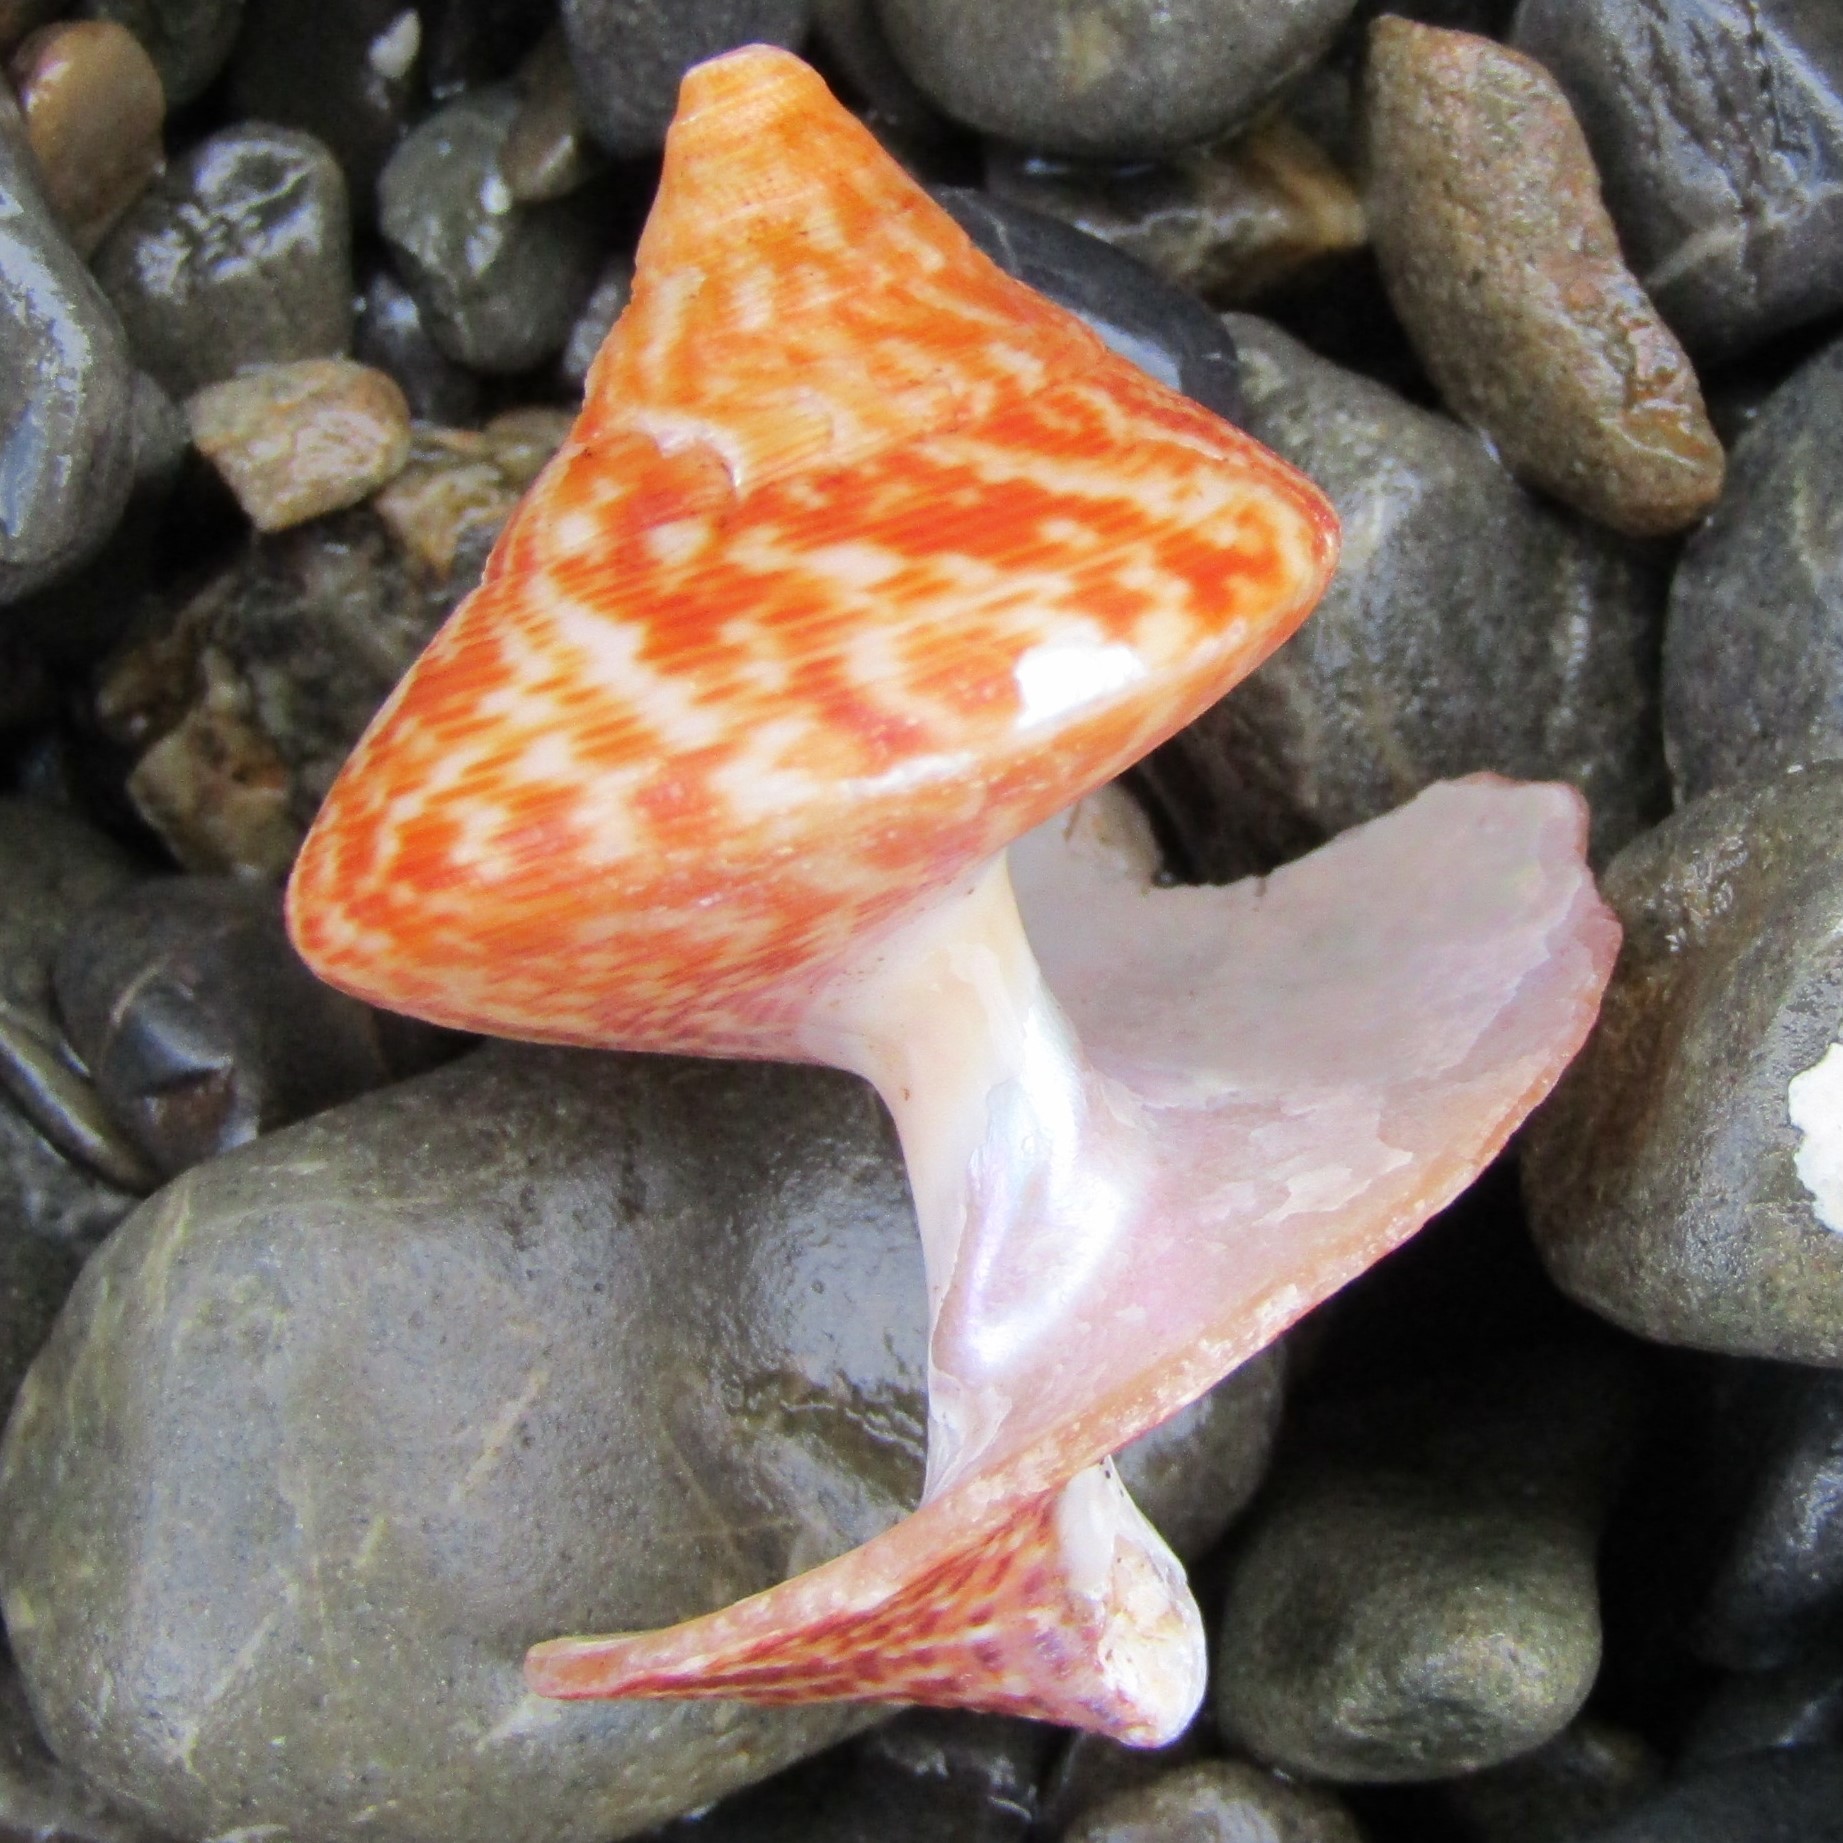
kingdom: Animalia
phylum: Mollusca
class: Gastropoda
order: Trochida
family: Calliostomatidae
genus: Maurea
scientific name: Maurea tigris
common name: Tiger maurea
